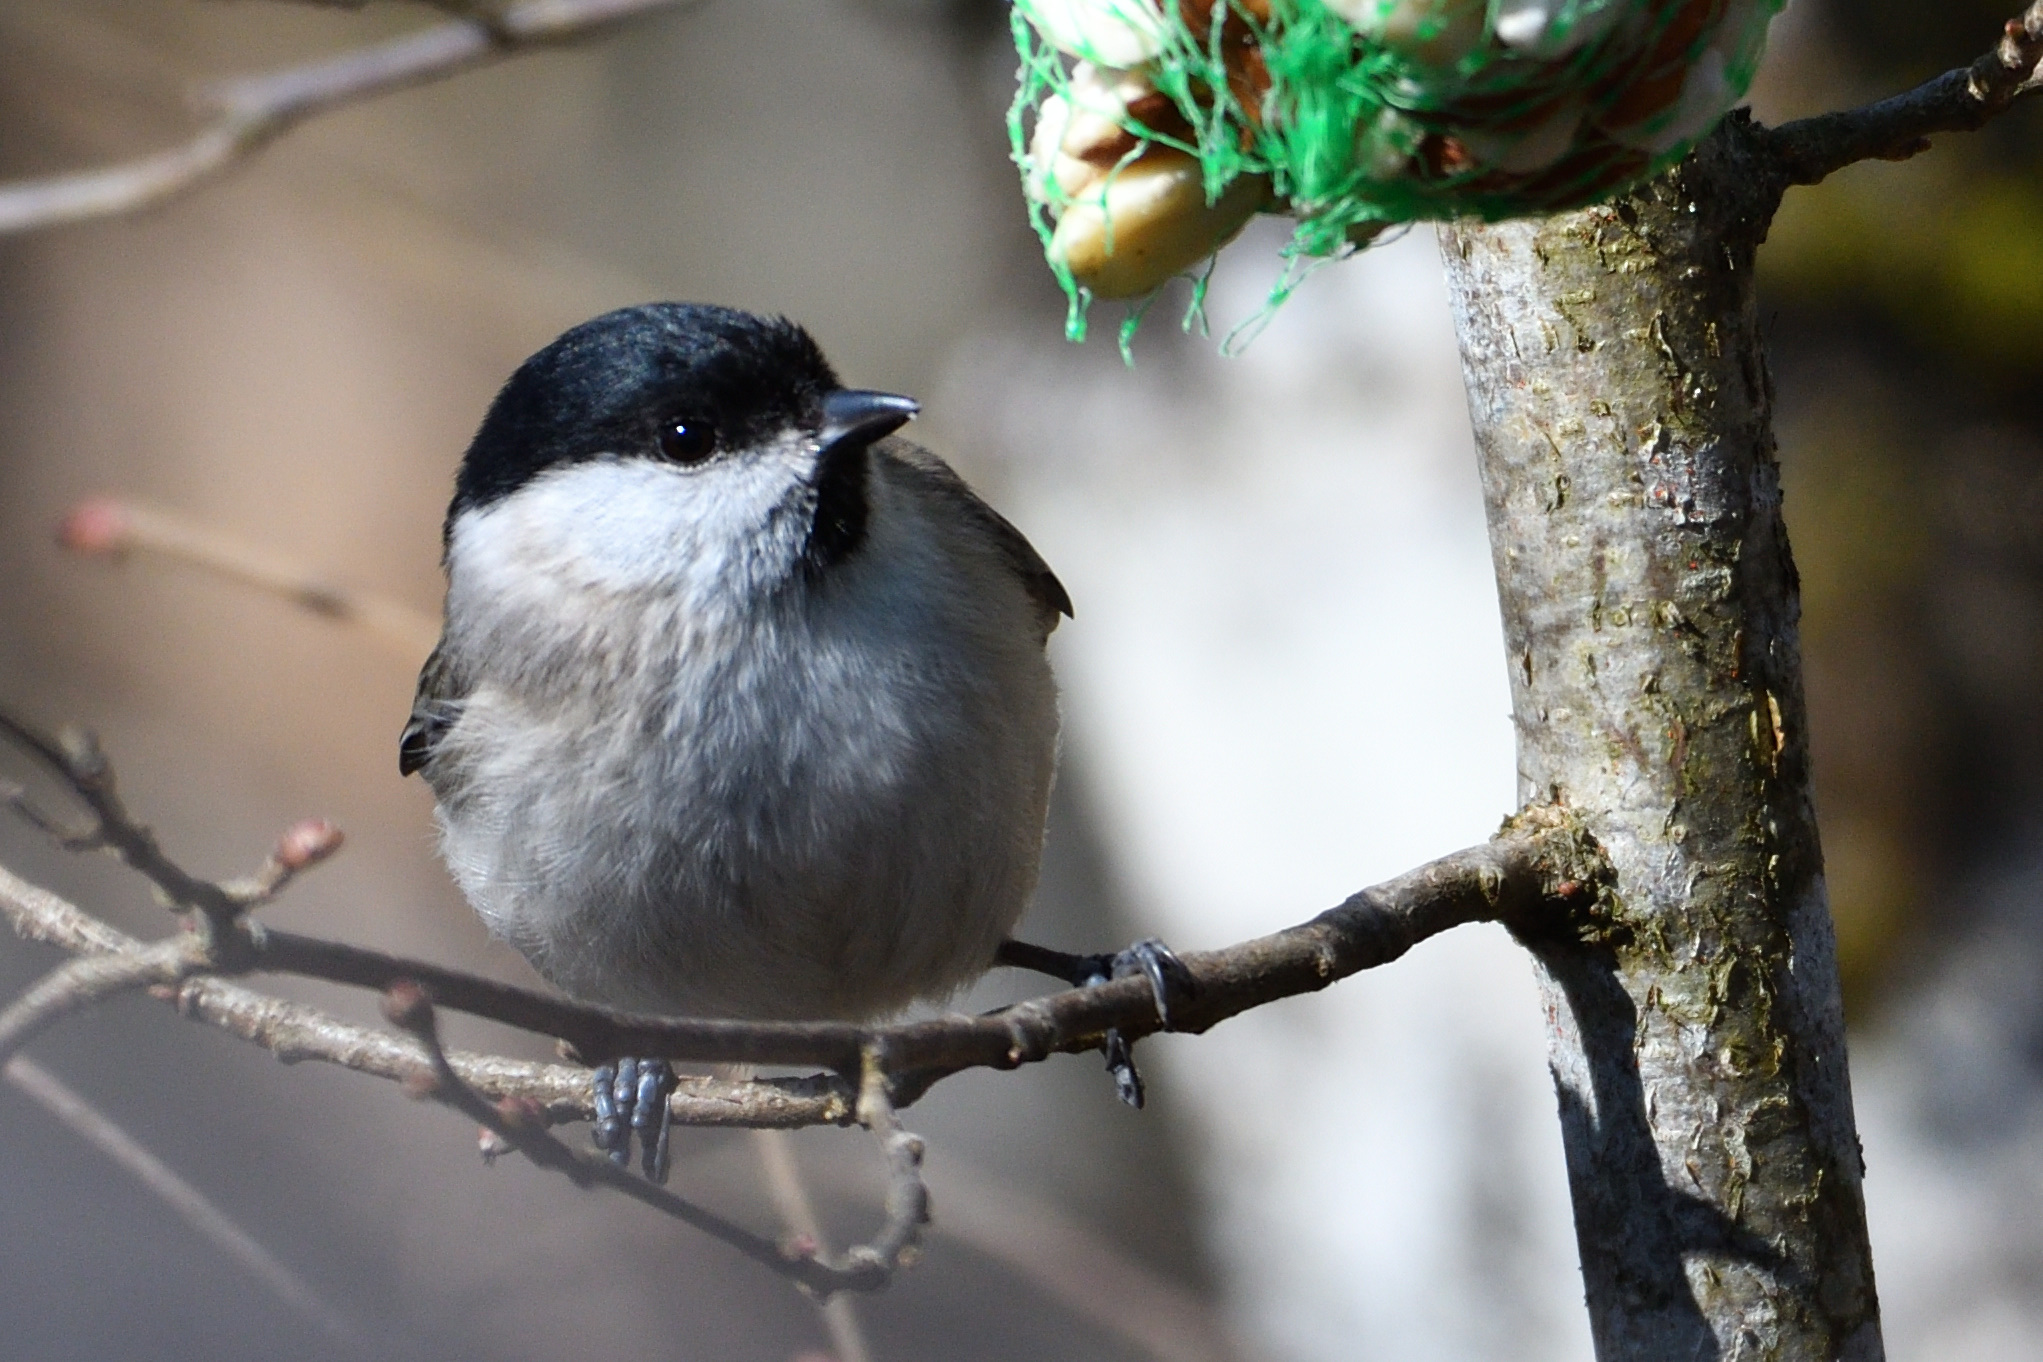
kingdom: Animalia
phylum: Chordata
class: Aves
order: Passeriformes
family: Paridae
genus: Poecile
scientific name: Poecile palustris
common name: Marsh tit
